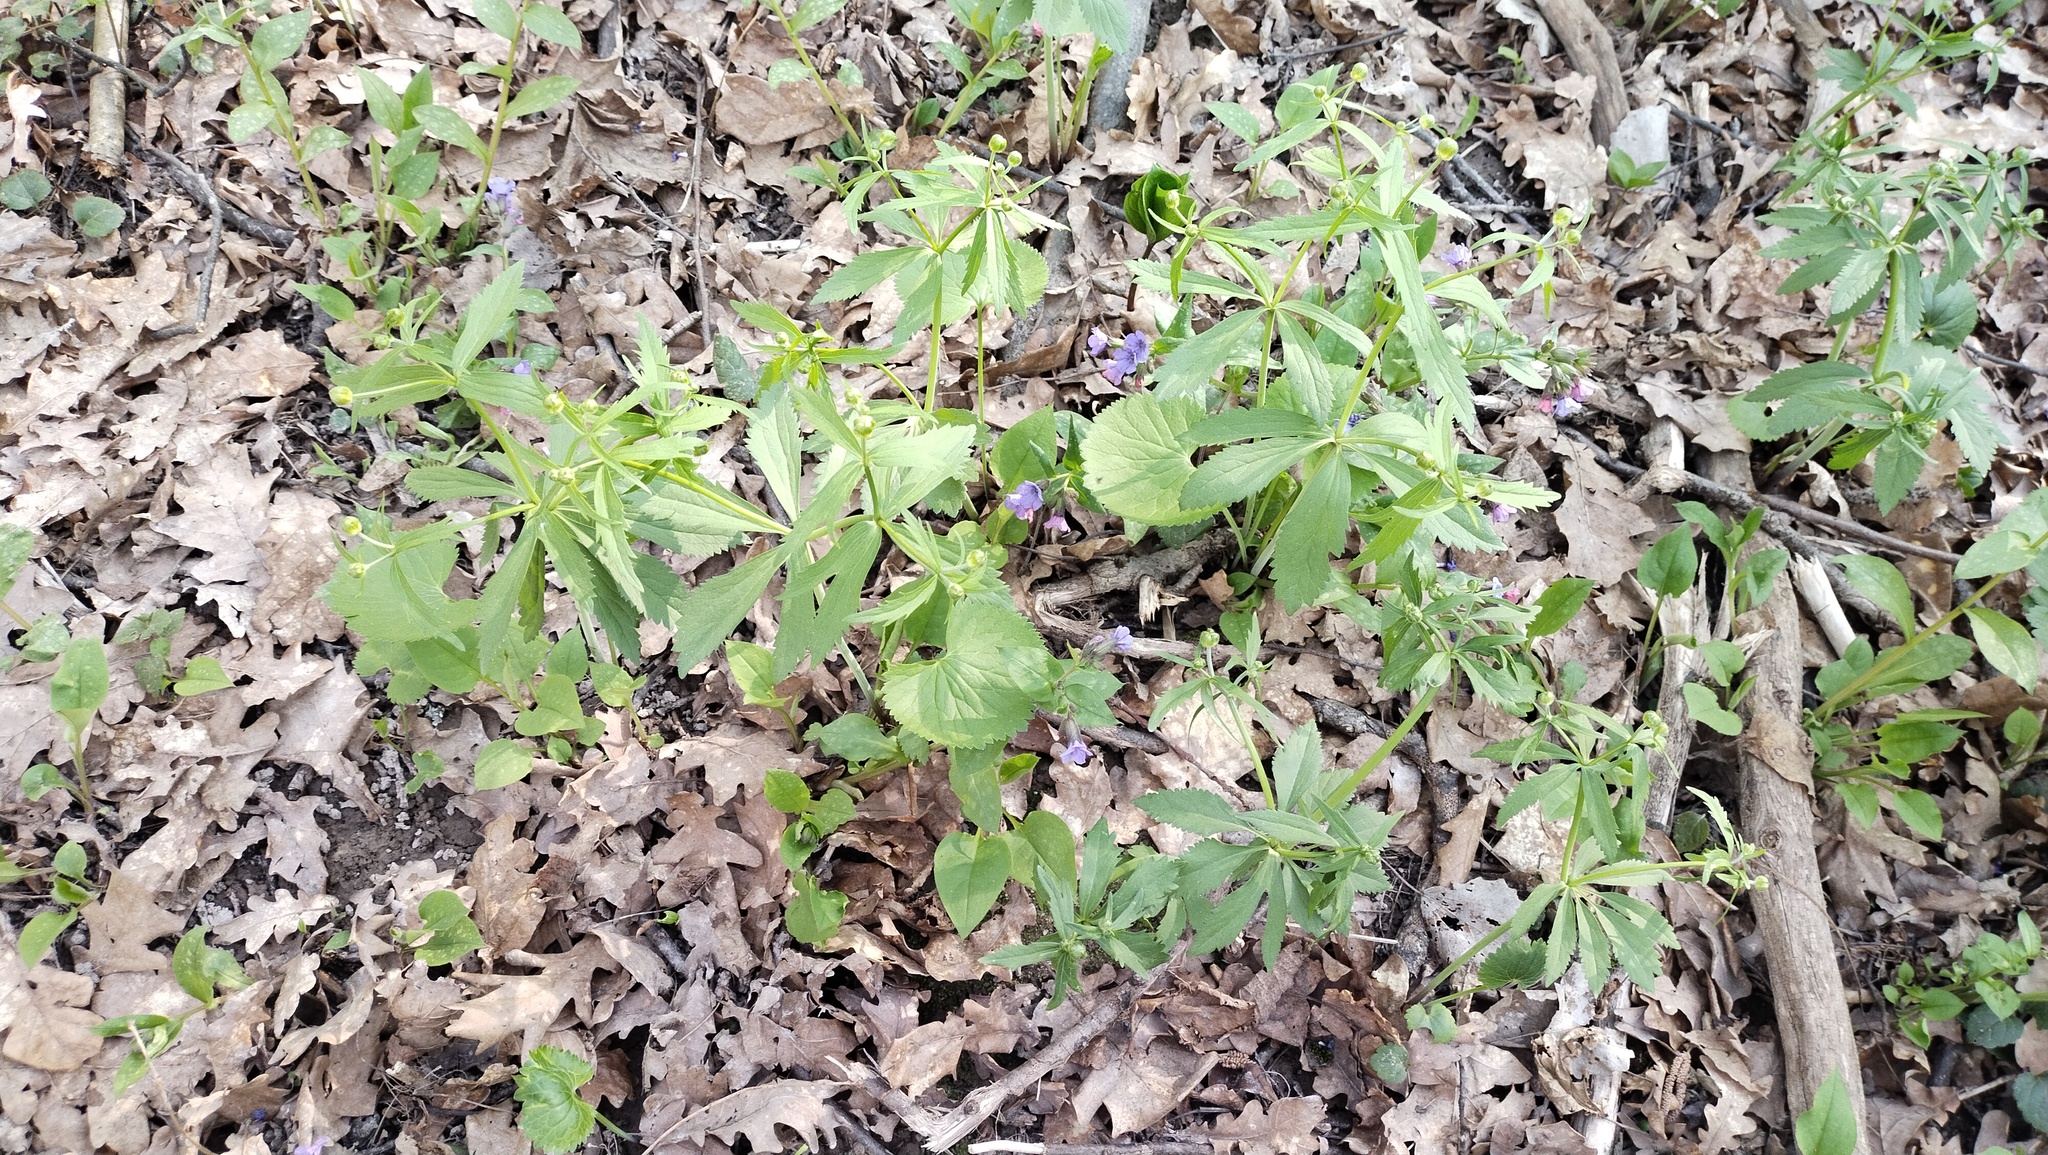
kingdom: Plantae
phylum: Tracheophyta
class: Magnoliopsida
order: Ranunculales
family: Ranunculaceae
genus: Ranunculus
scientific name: Ranunculus cassubicus
